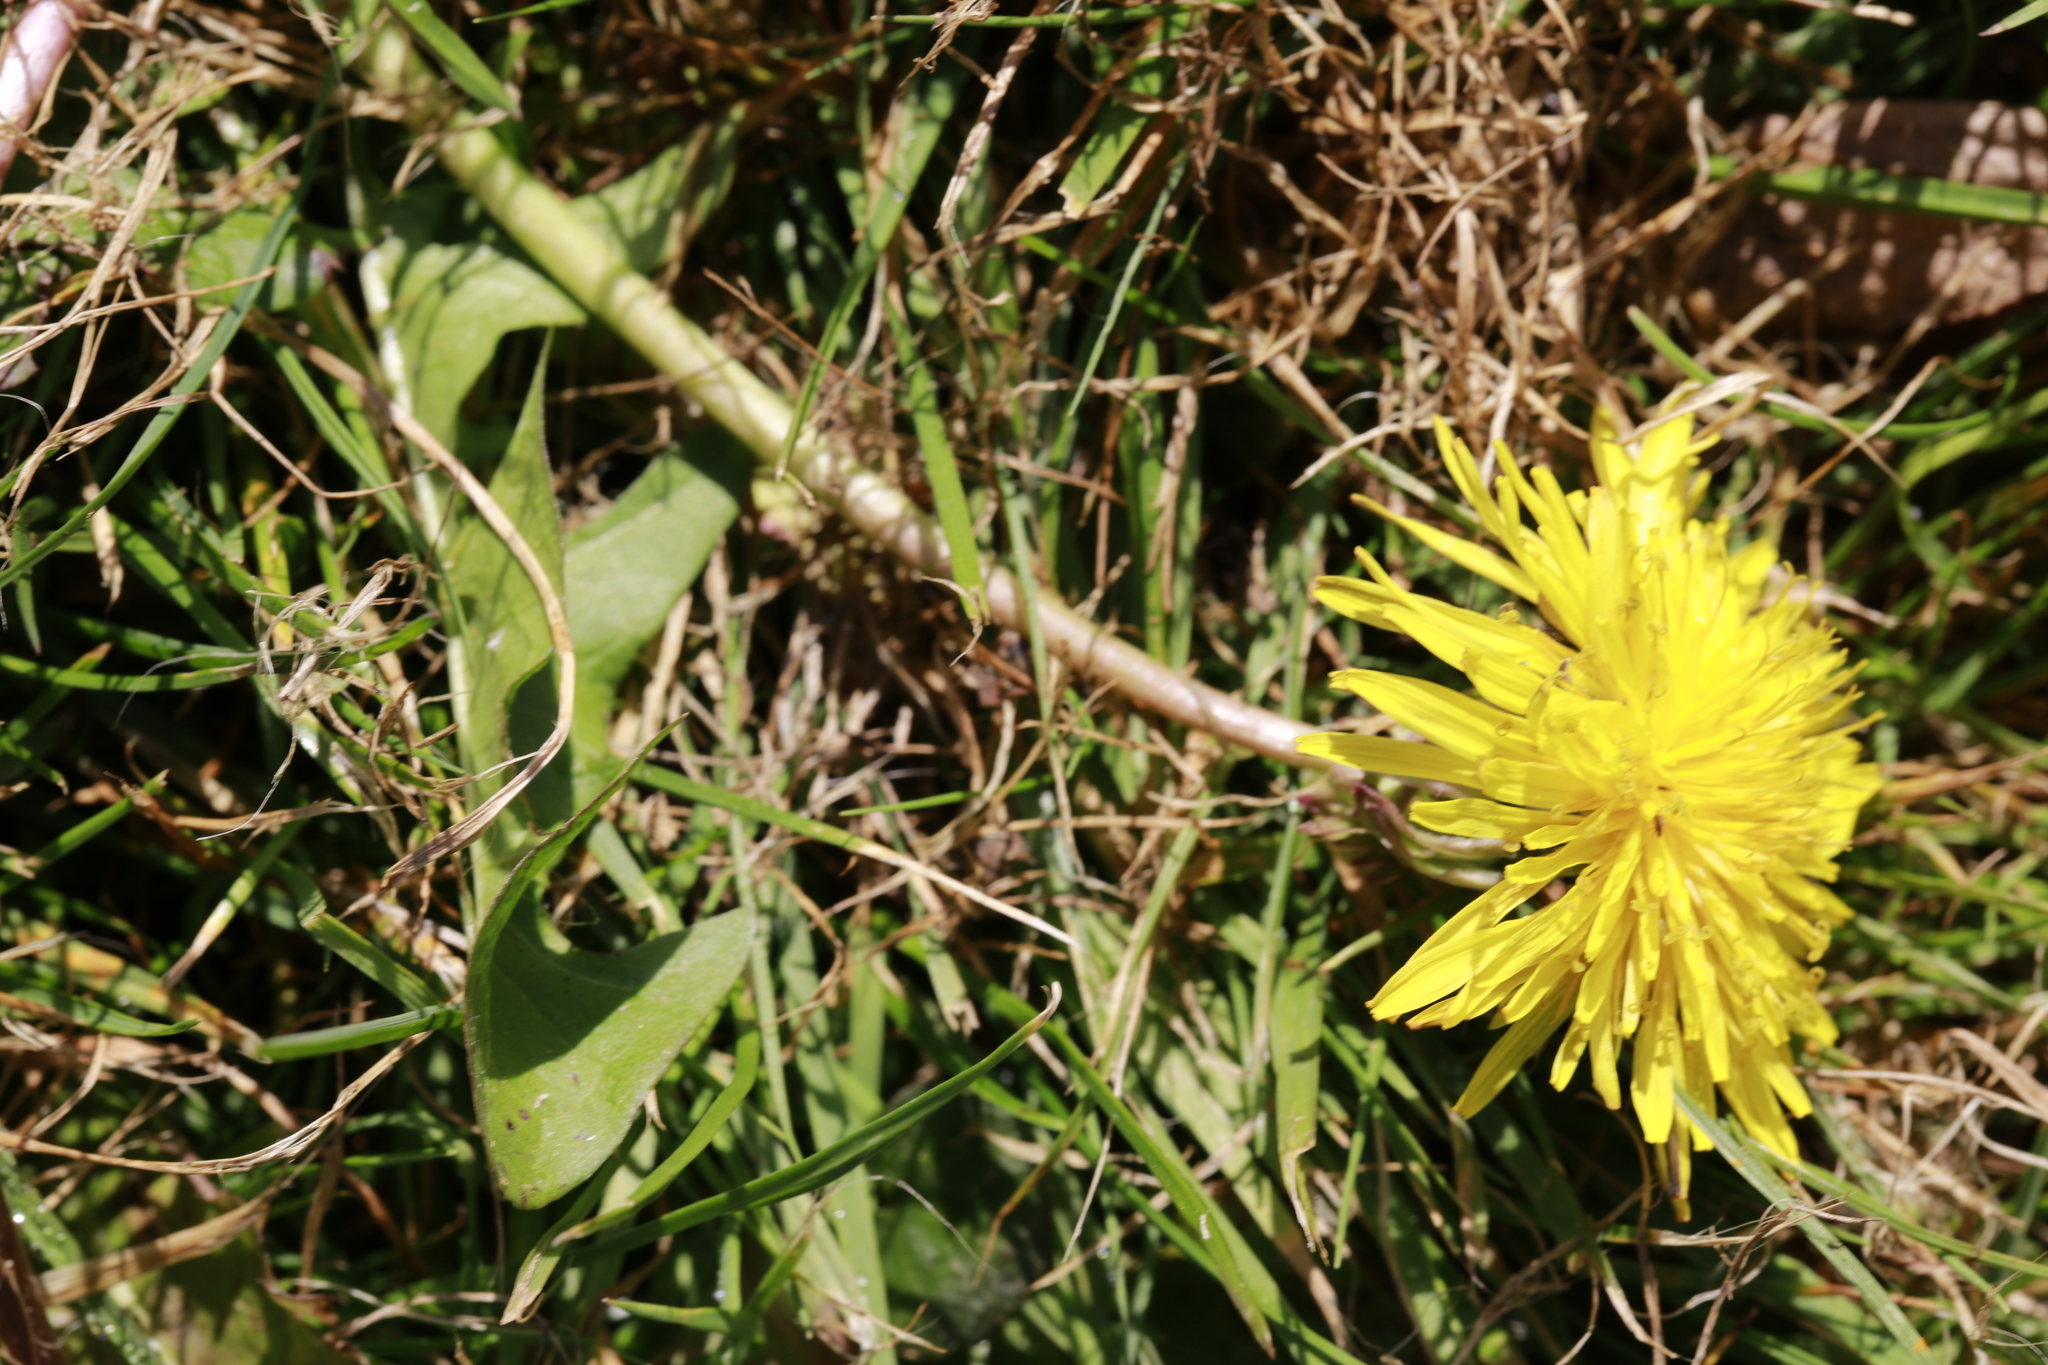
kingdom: Plantae
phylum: Tracheophyta
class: Magnoliopsida
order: Asterales
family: Asteraceae
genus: Taraxacum
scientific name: Taraxacum officinale
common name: Common dandelion
